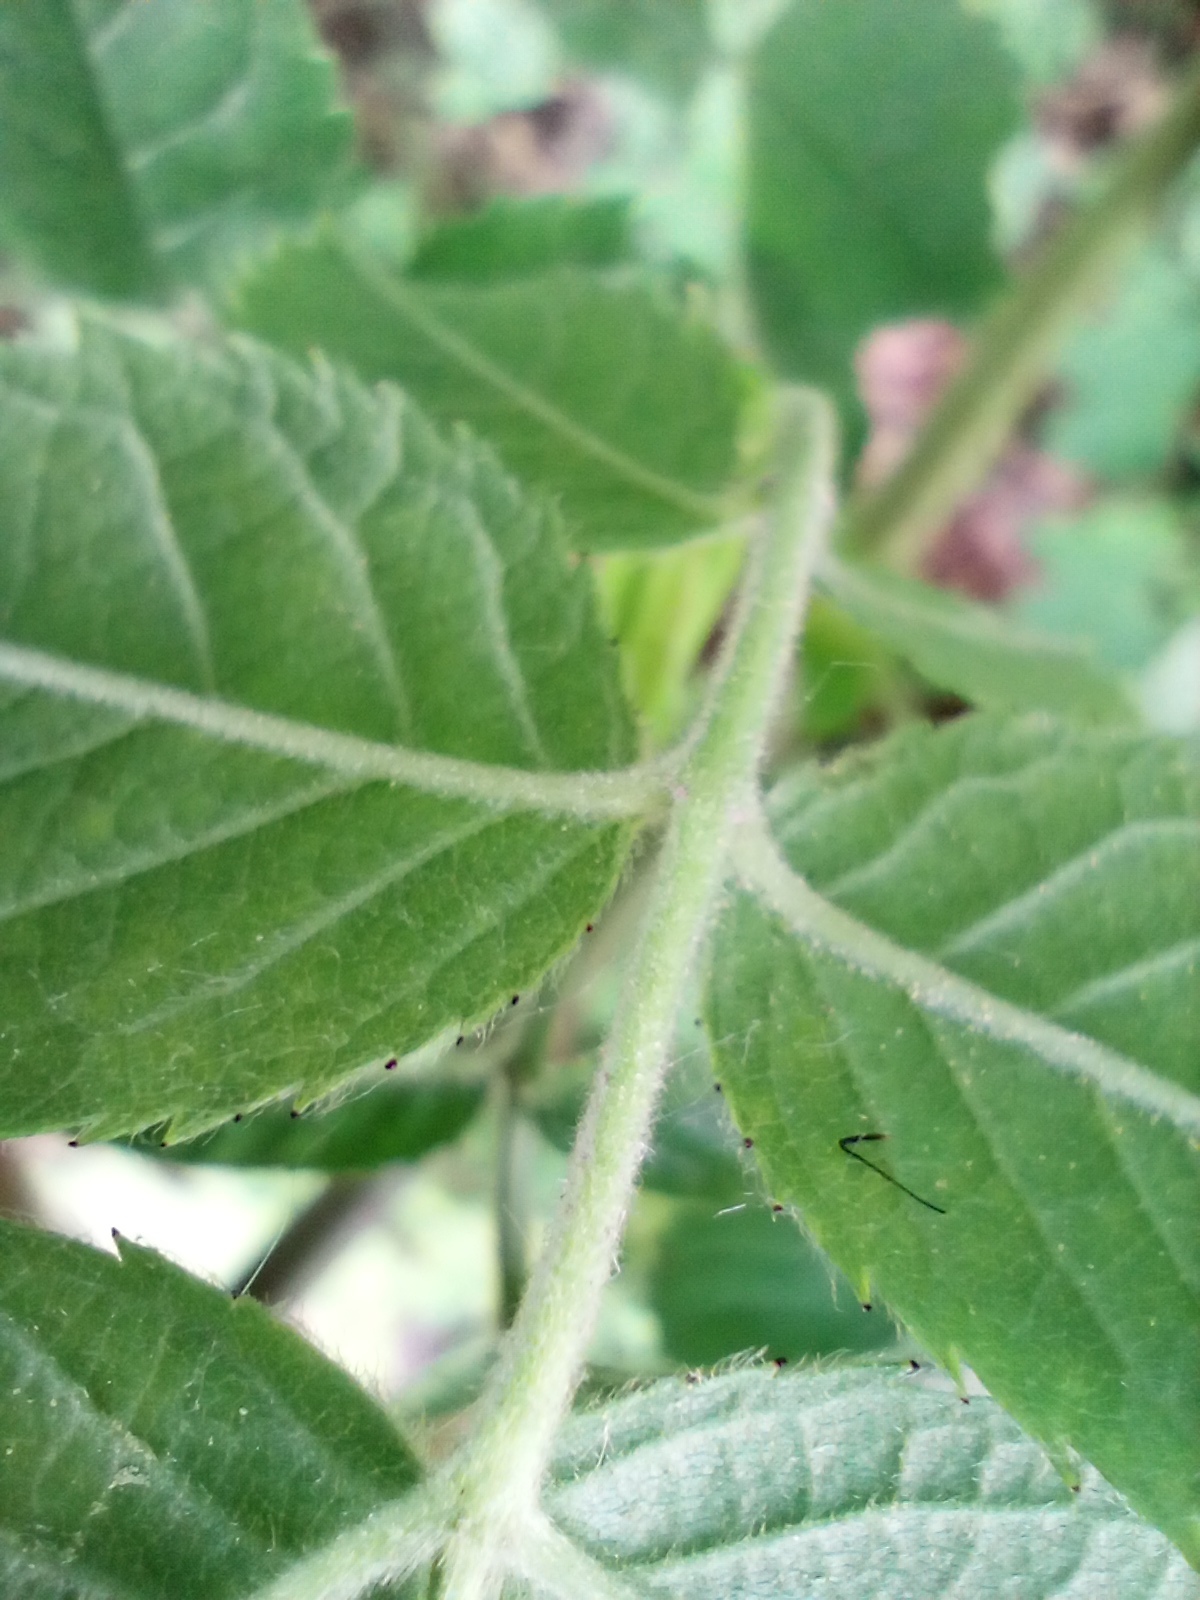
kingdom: Plantae
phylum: Tracheophyta
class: Magnoliopsida
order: Rosales
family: Rosaceae
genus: Rosa
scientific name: Rosa corymbifera
